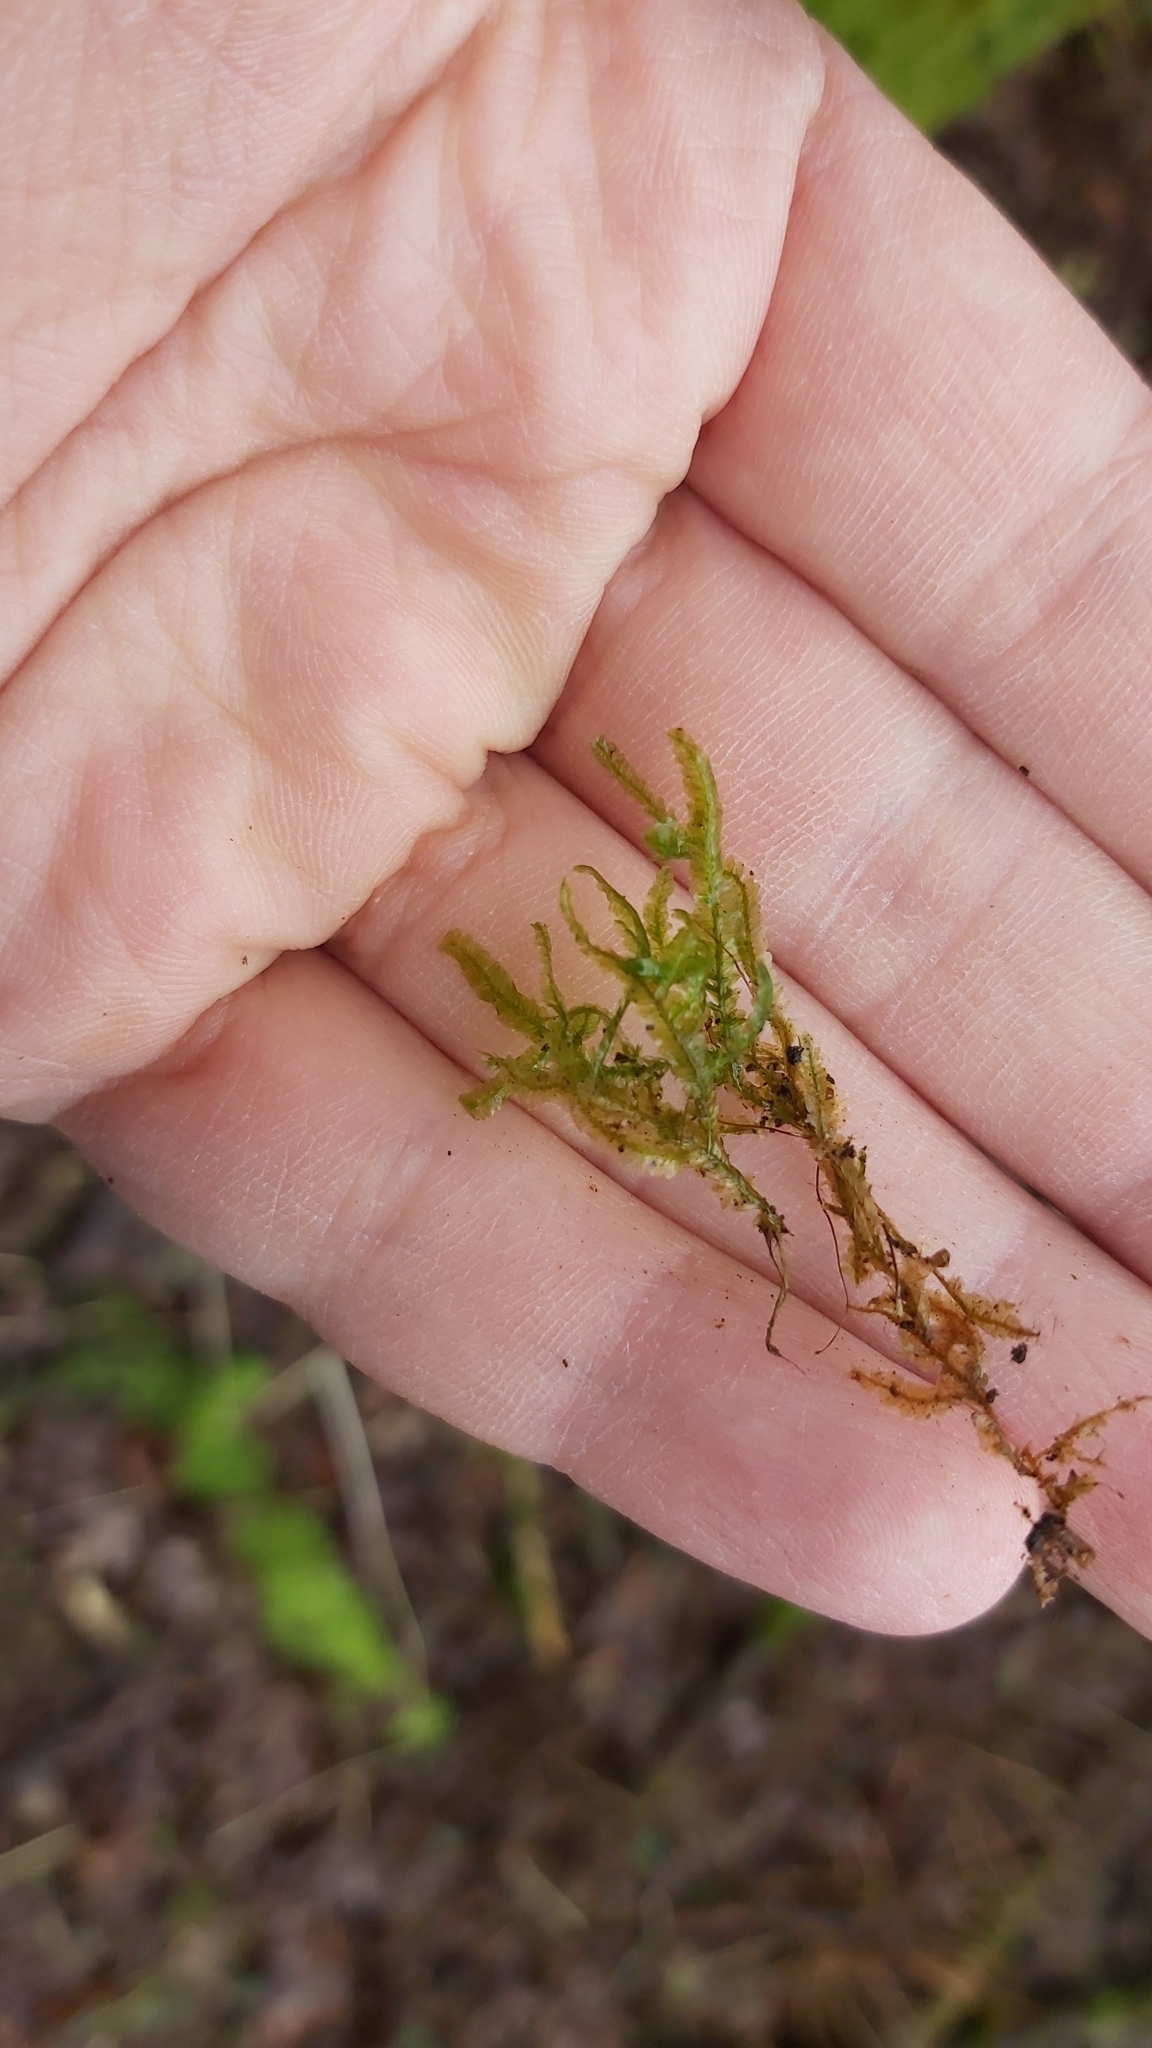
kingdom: Plantae
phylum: Bryophyta
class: Bryopsida
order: Hypnales
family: Neckeraceae
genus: Homalia
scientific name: Homalia trichomanoides
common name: Lime homalia moss
